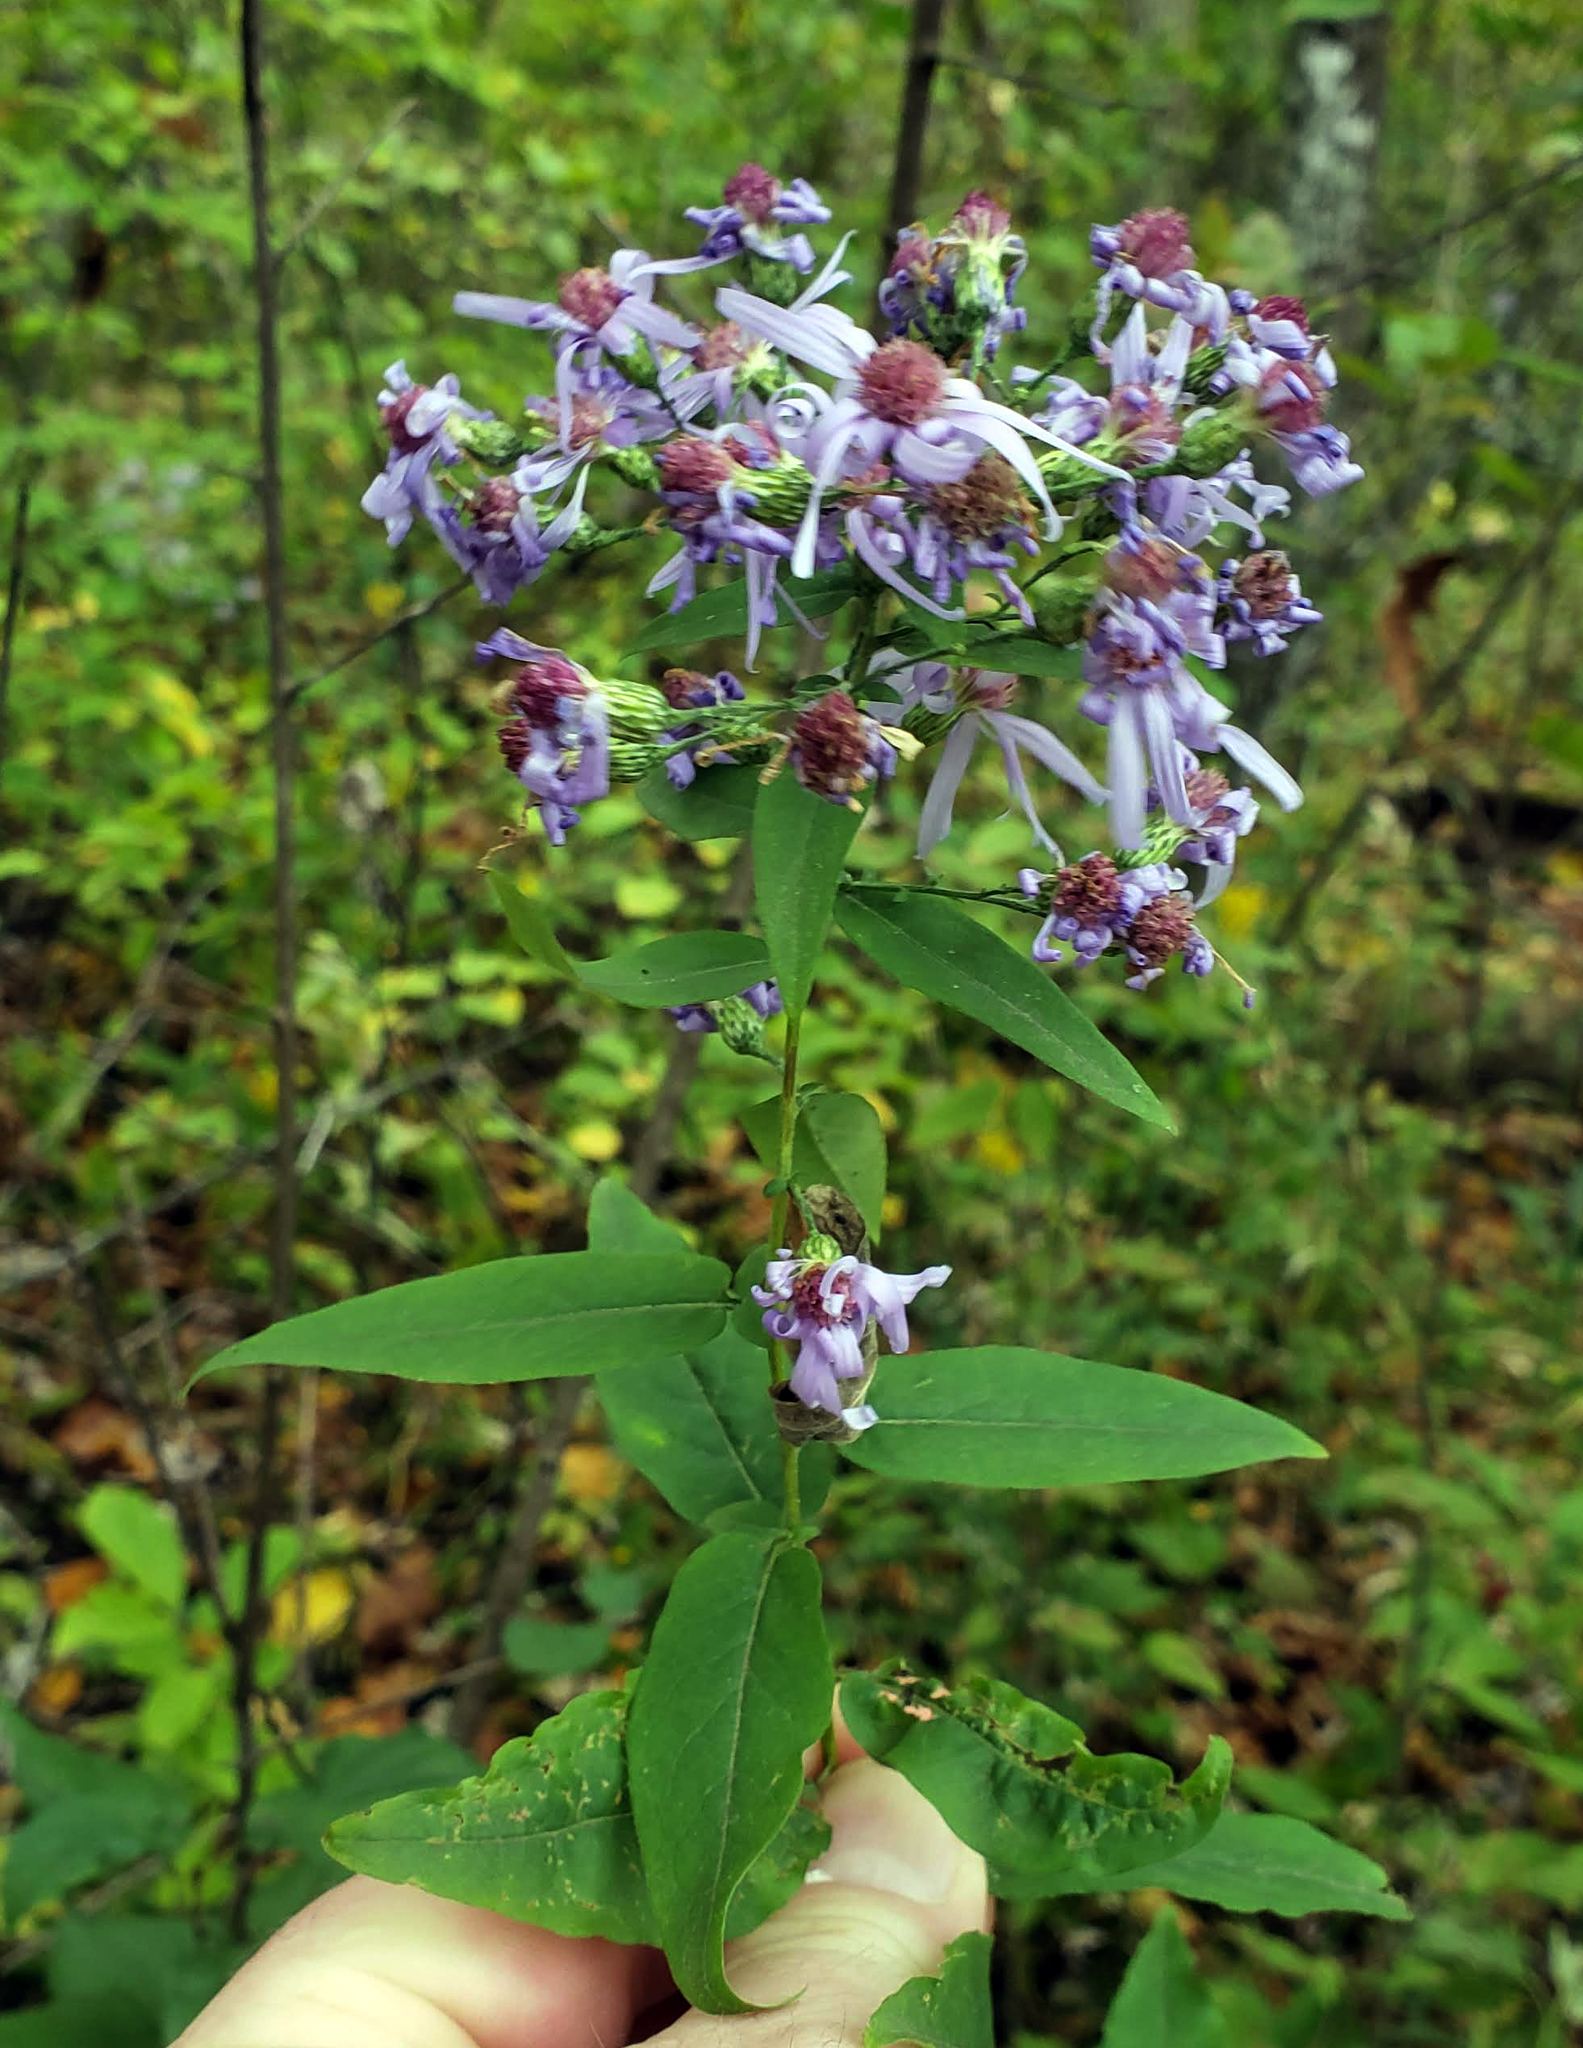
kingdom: Plantae
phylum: Tracheophyta
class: Magnoliopsida
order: Asterales
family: Asteraceae
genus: Symphyotrichum
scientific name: Symphyotrichum shortii
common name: Short's aster
